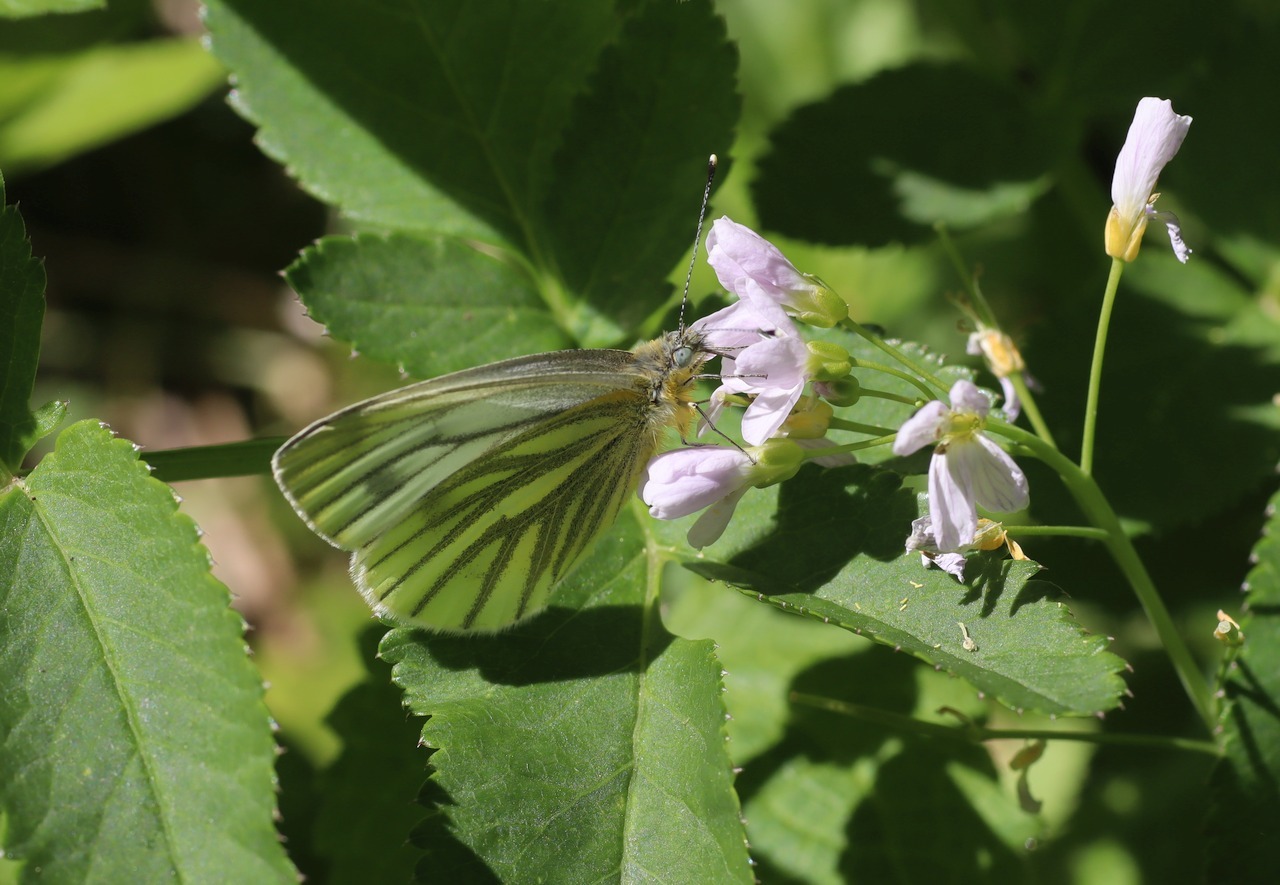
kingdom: Animalia
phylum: Arthropoda
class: Insecta
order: Lepidoptera
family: Pieridae
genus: Pieris
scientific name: Pieris napi
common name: Green-veined white
